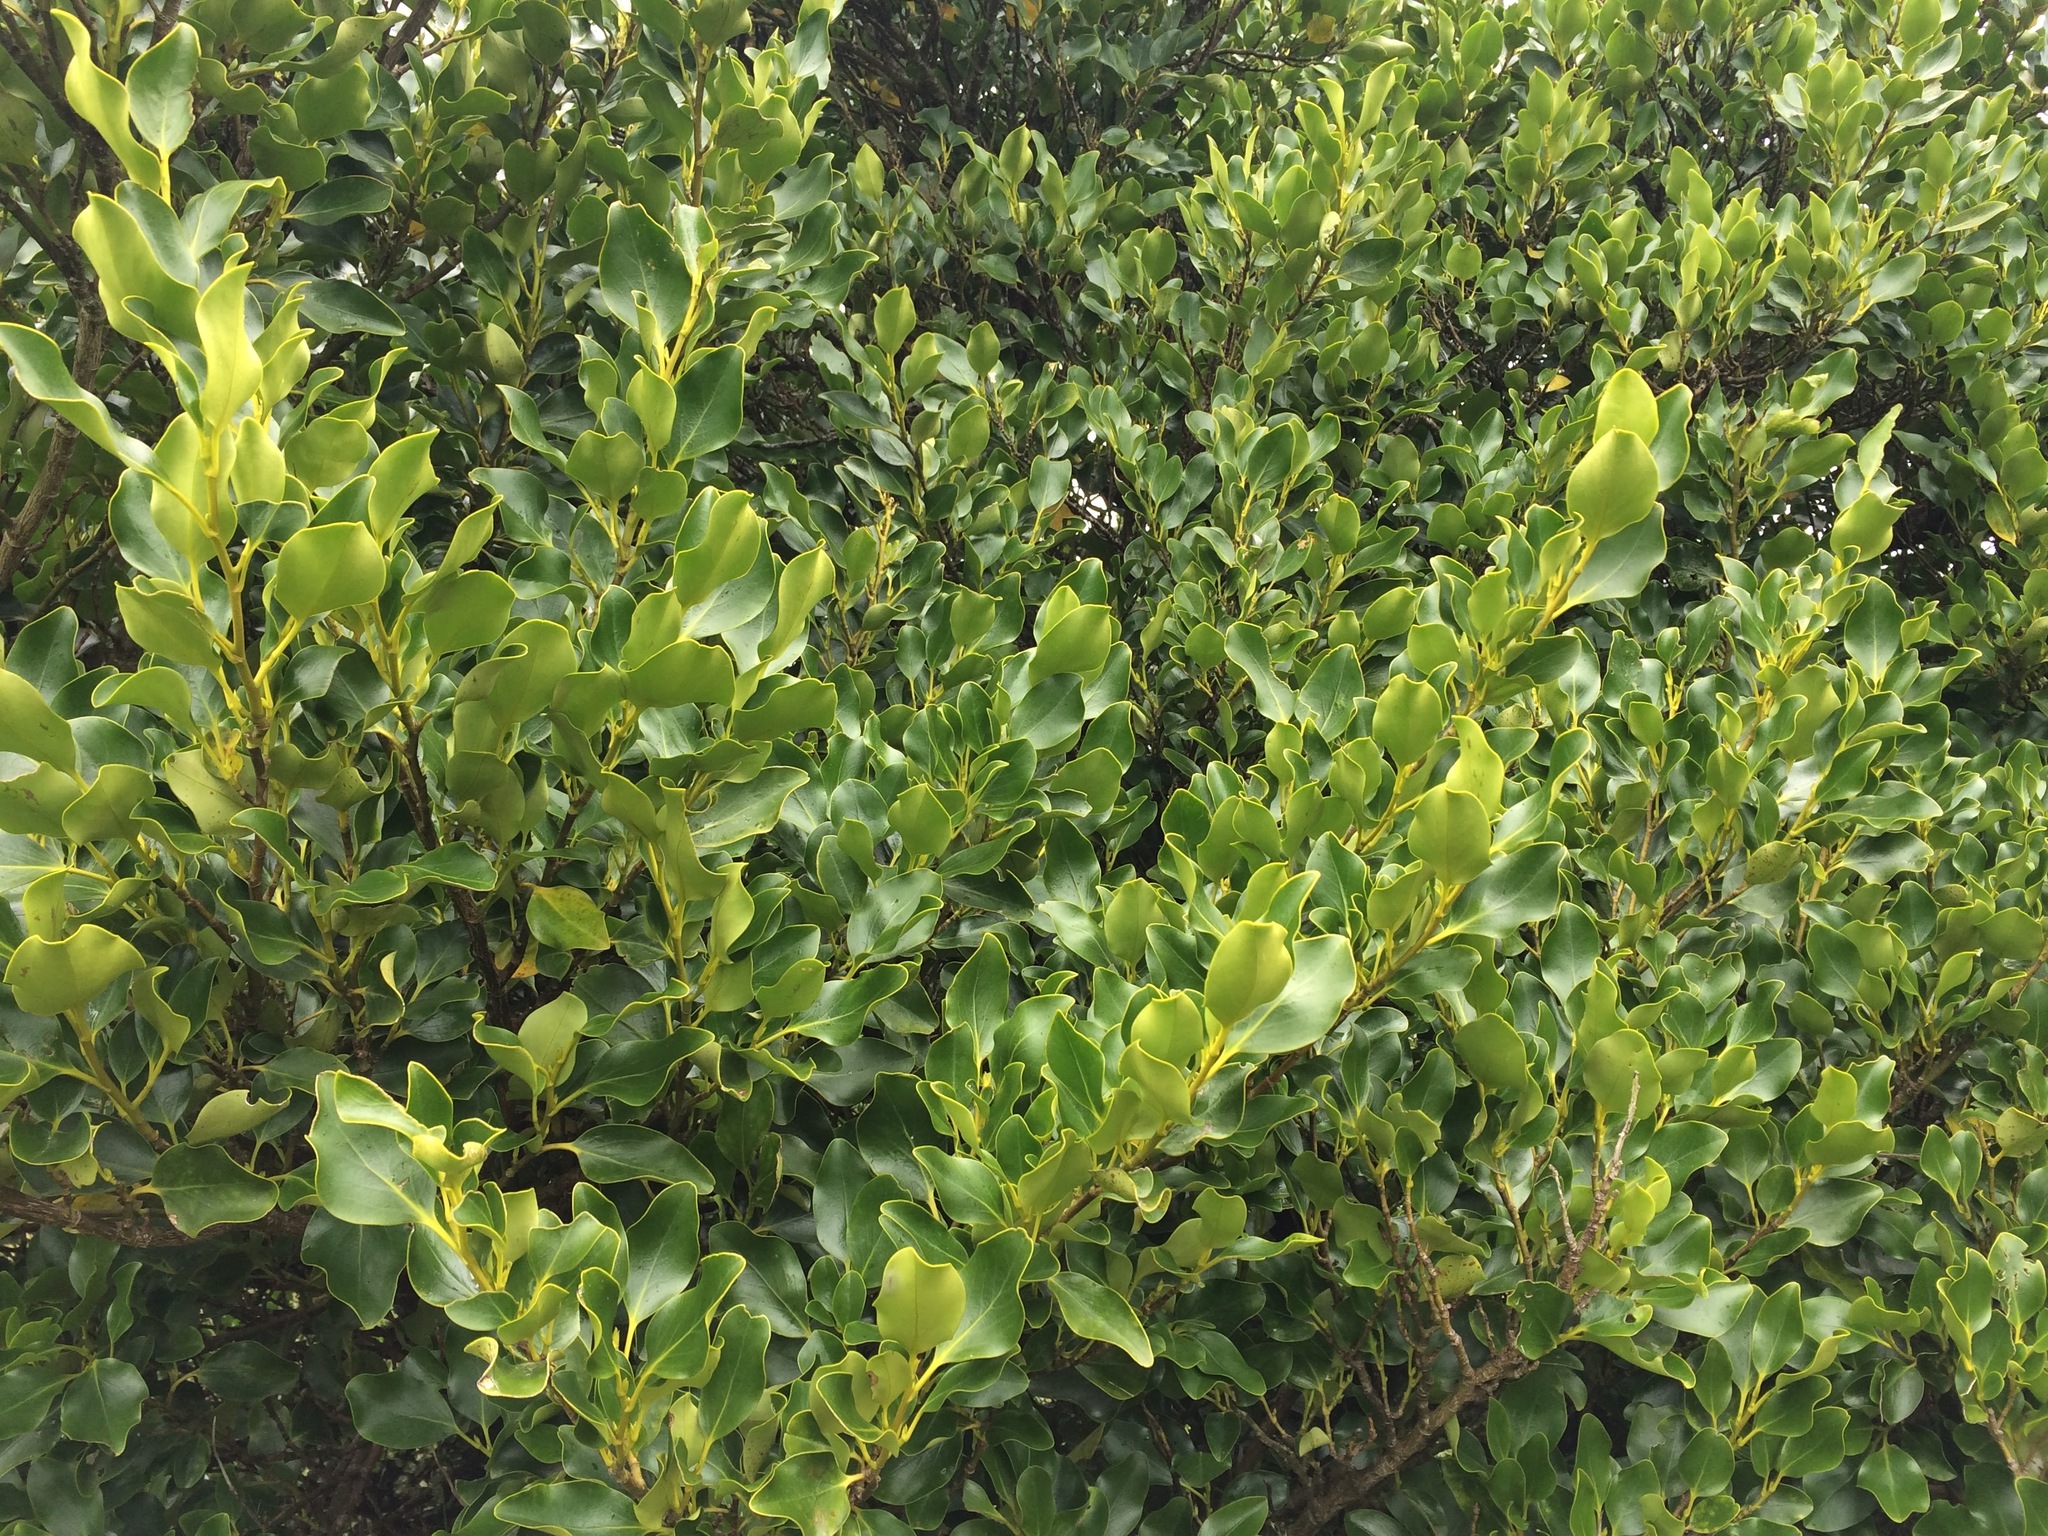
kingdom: Plantae
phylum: Tracheophyta
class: Magnoliopsida
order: Apiales
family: Griseliniaceae
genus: Griselinia
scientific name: Griselinia littoralis
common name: New zealand broadleaf
